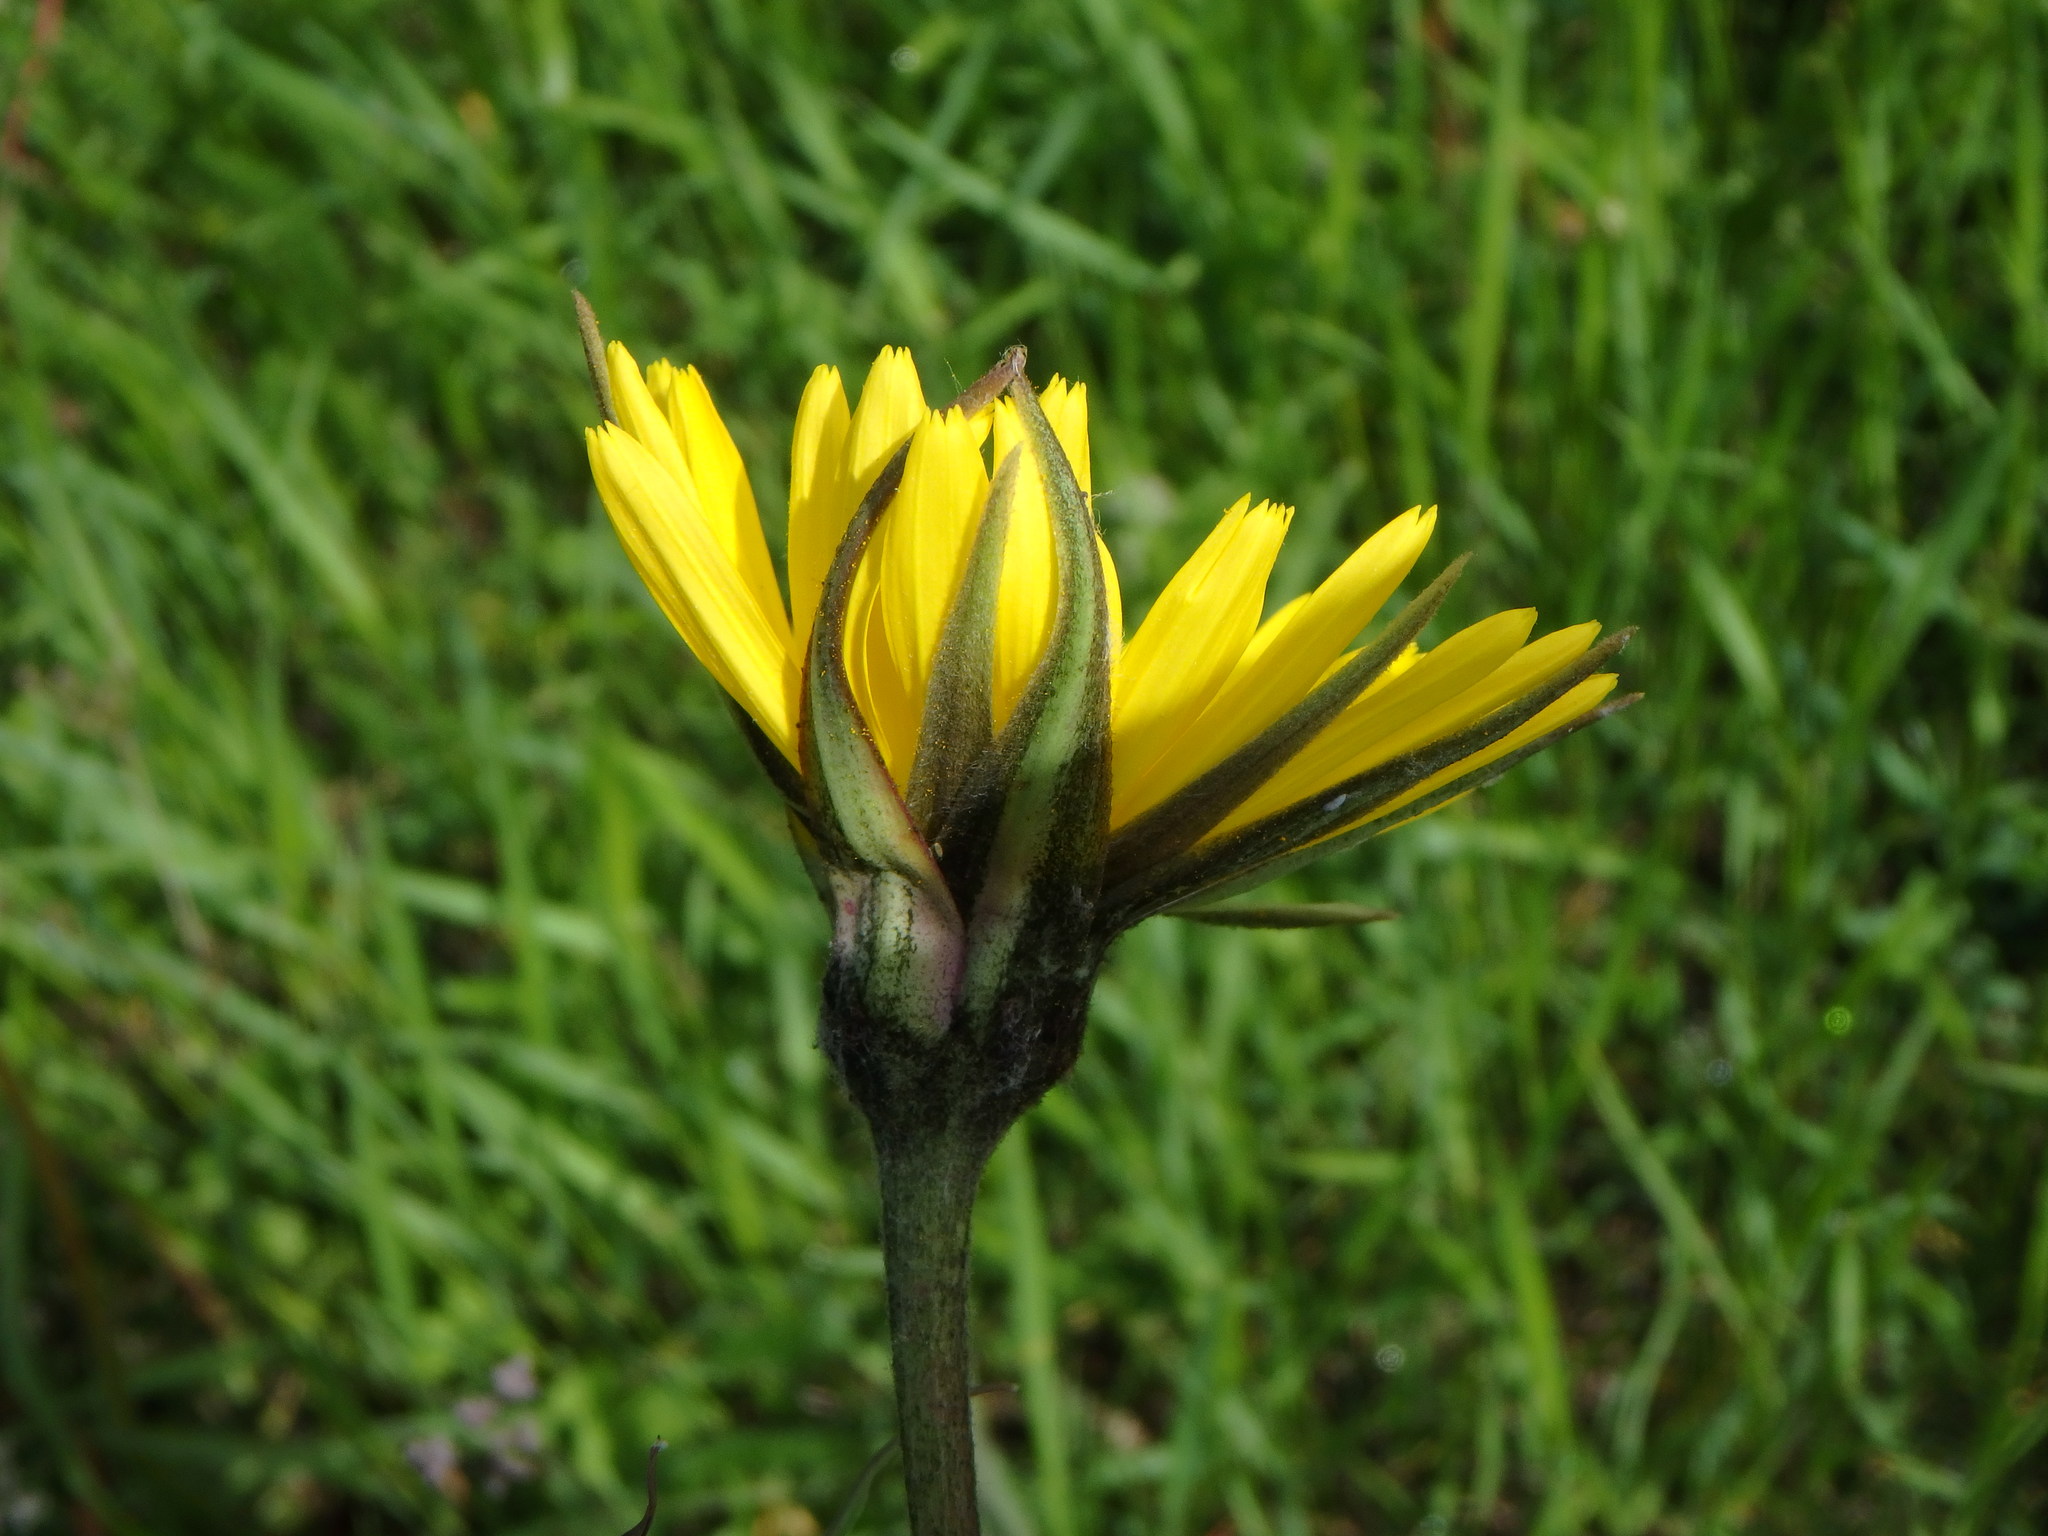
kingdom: Plantae
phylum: Tracheophyta
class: Magnoliopsida
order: Asterales
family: Asteraceae
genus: Tragopogon
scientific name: Tragopogon pratensis
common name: Goat's-beard
